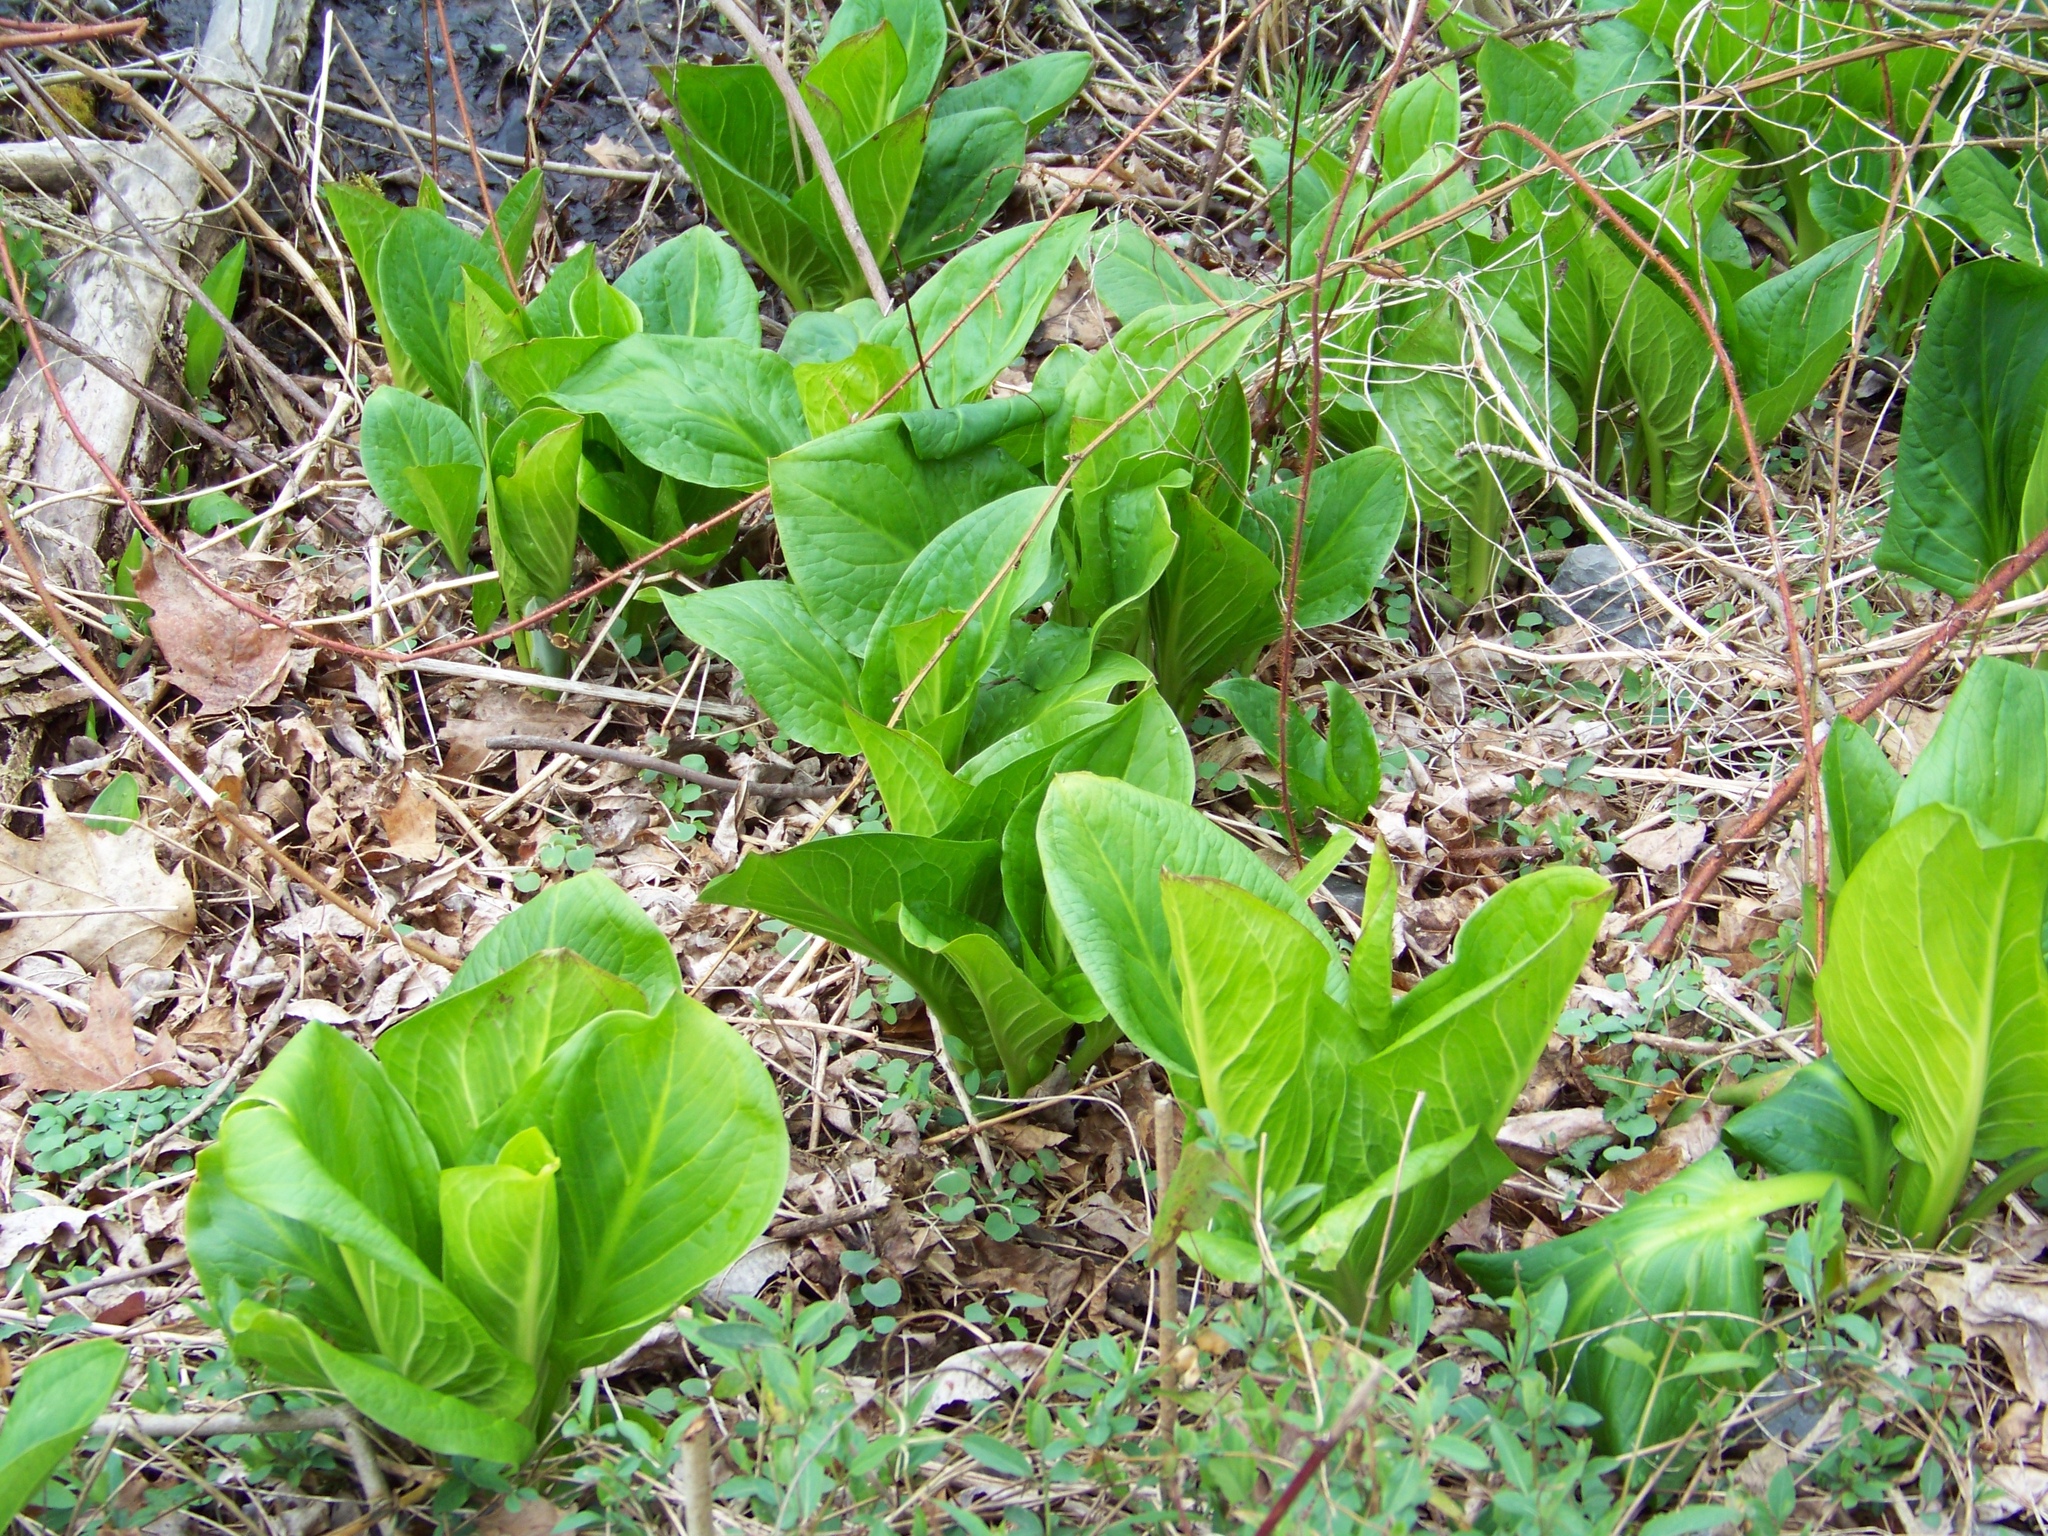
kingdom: Plantae
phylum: Tracheophyta
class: Liliopsida
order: Alismatales
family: Araceae
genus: Symplocarpus
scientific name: Symplocarpus foetidus
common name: Eastern skunk cabbage
